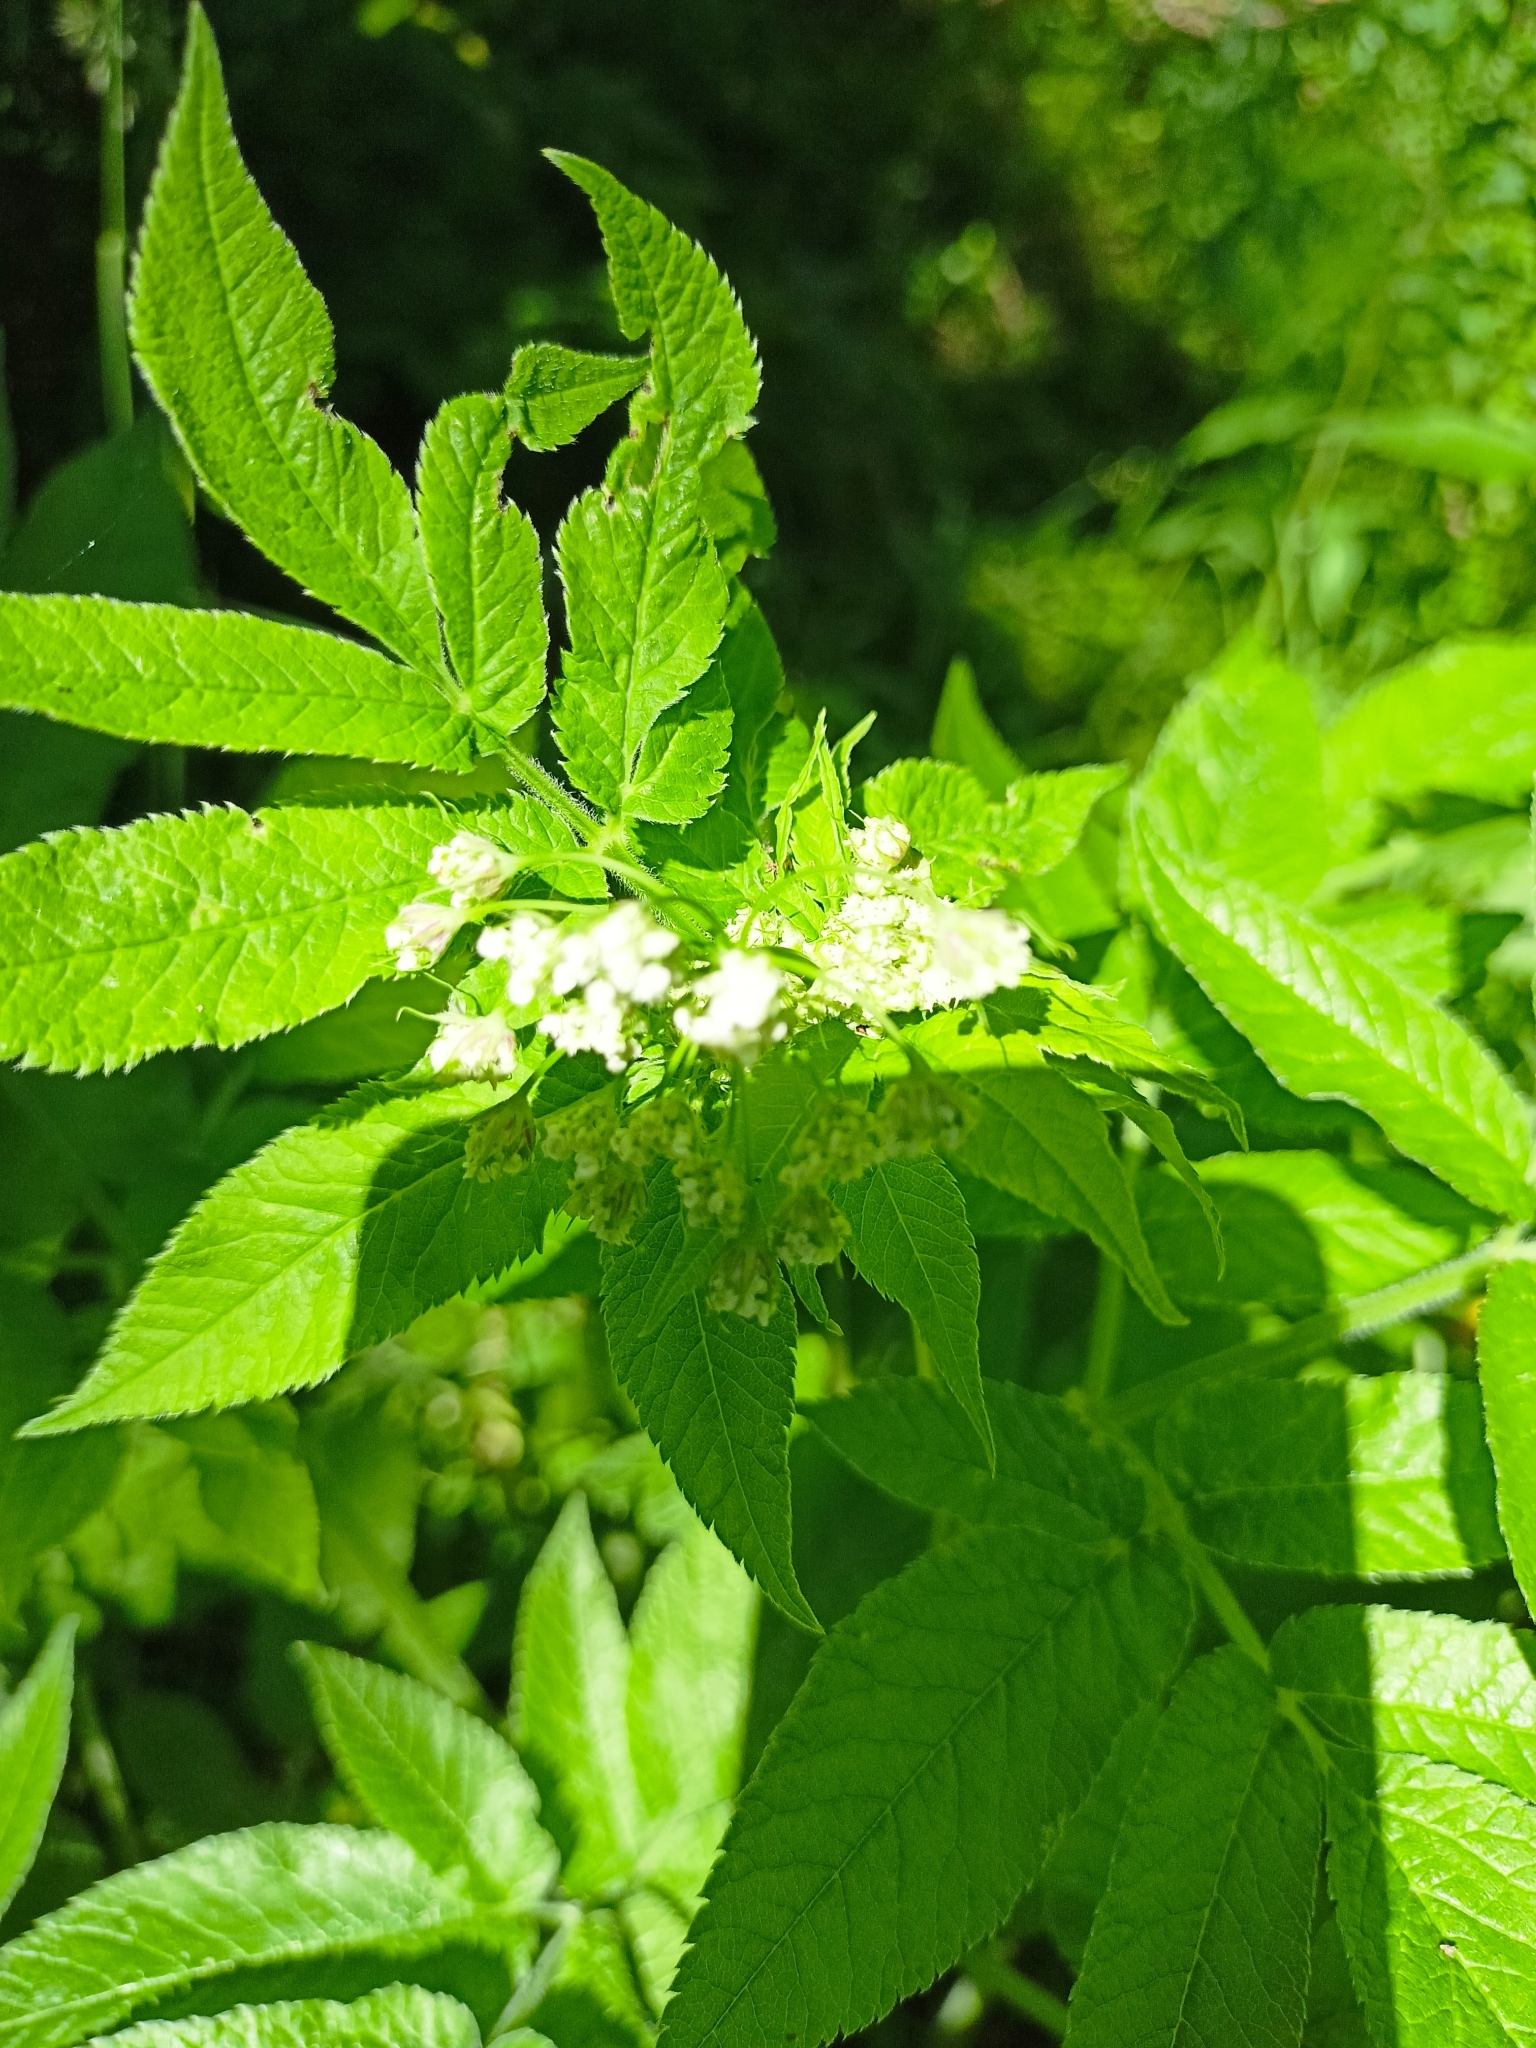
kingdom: Plantae
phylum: Tracheophyta
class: Magnoliopsida
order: Apiales
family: Apiaceae
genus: Chaerophyllum
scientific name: Chaerophyllum aromaticum
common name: Broadleaf chervil
